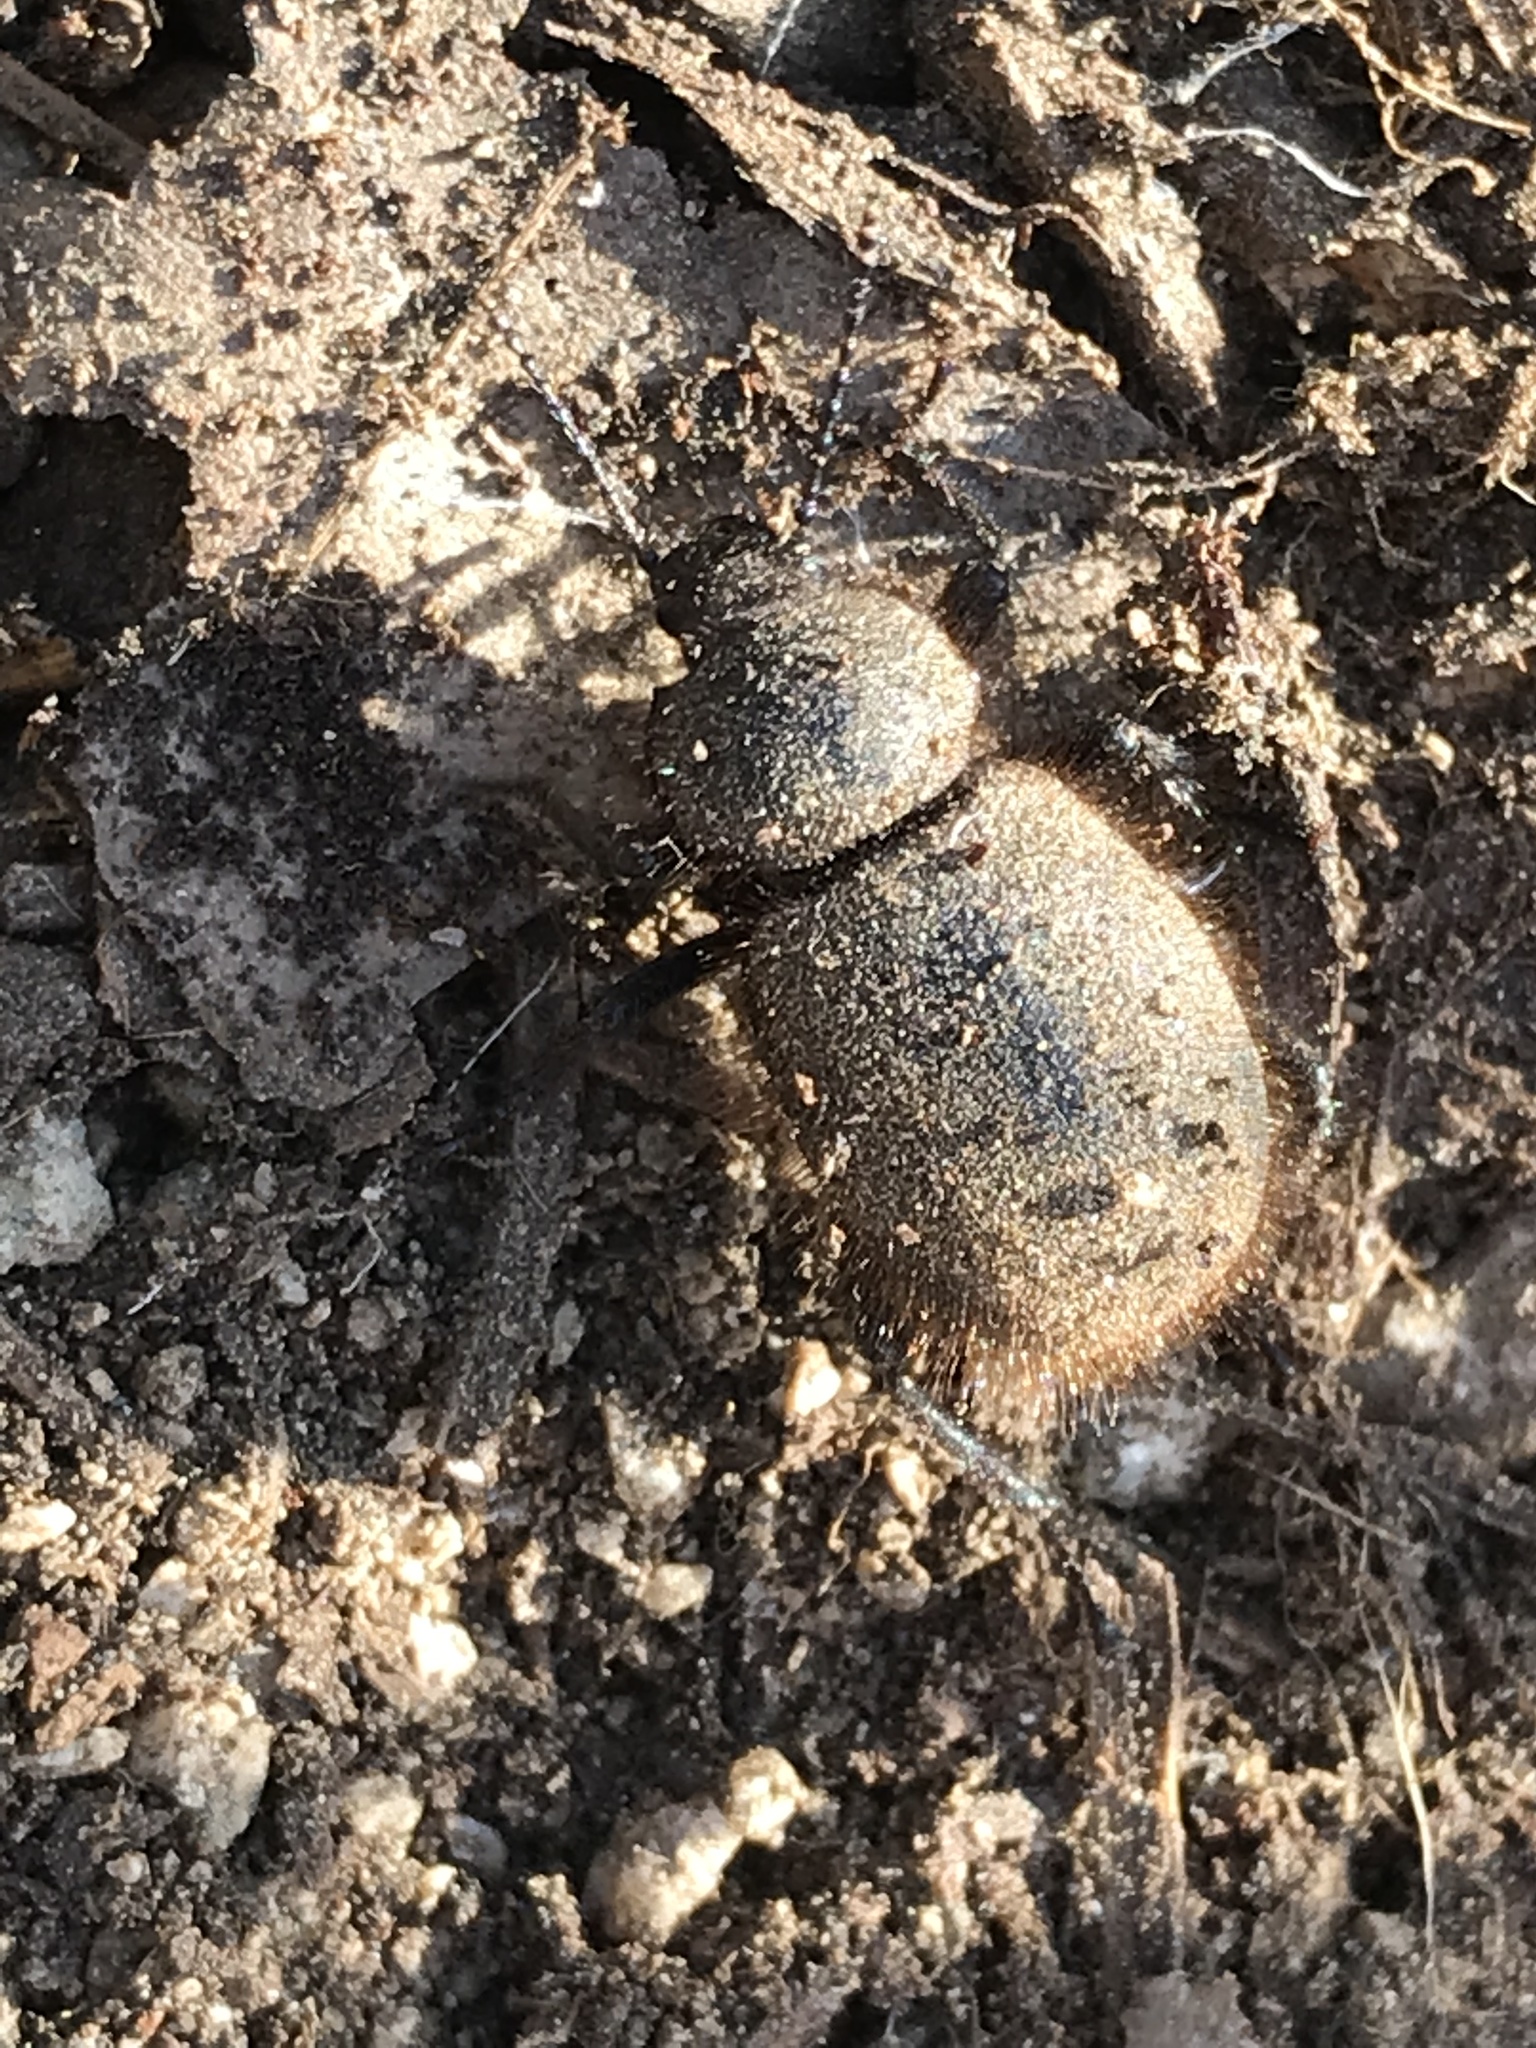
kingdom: Animalia
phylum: Arthropoda
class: Insecta
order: Coleoptera
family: Tenebrionidae
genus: Eleodes
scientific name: Eleodes osculans
